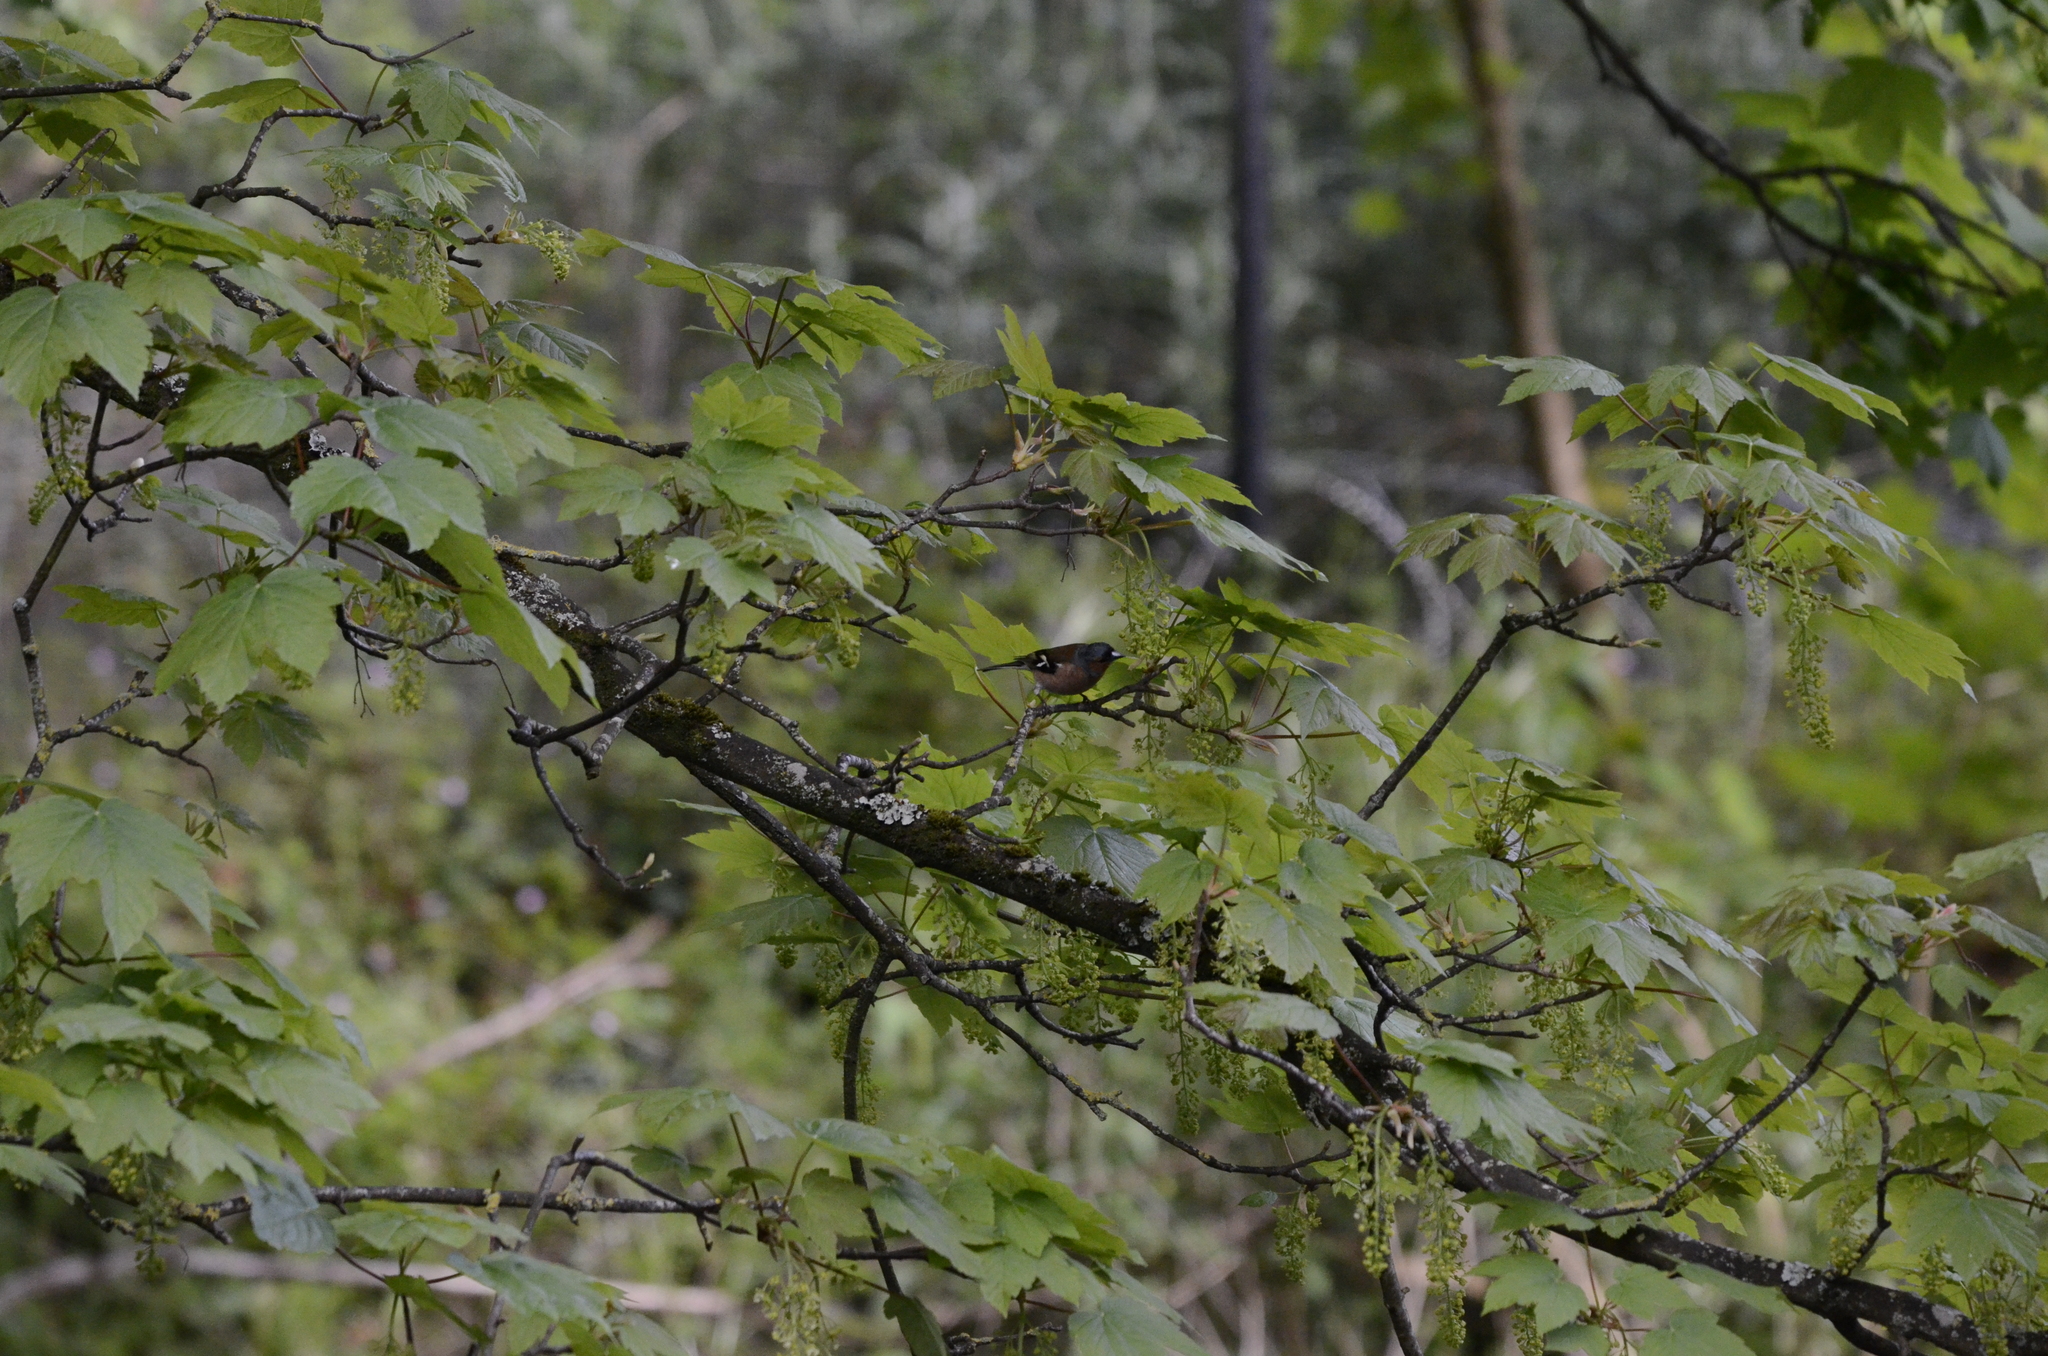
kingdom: Animalia
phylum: Chordata
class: Aves
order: Passeriformes
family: Fringillidae
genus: Fringilla
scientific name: Fringilla coelebs
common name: Common chaffinch
